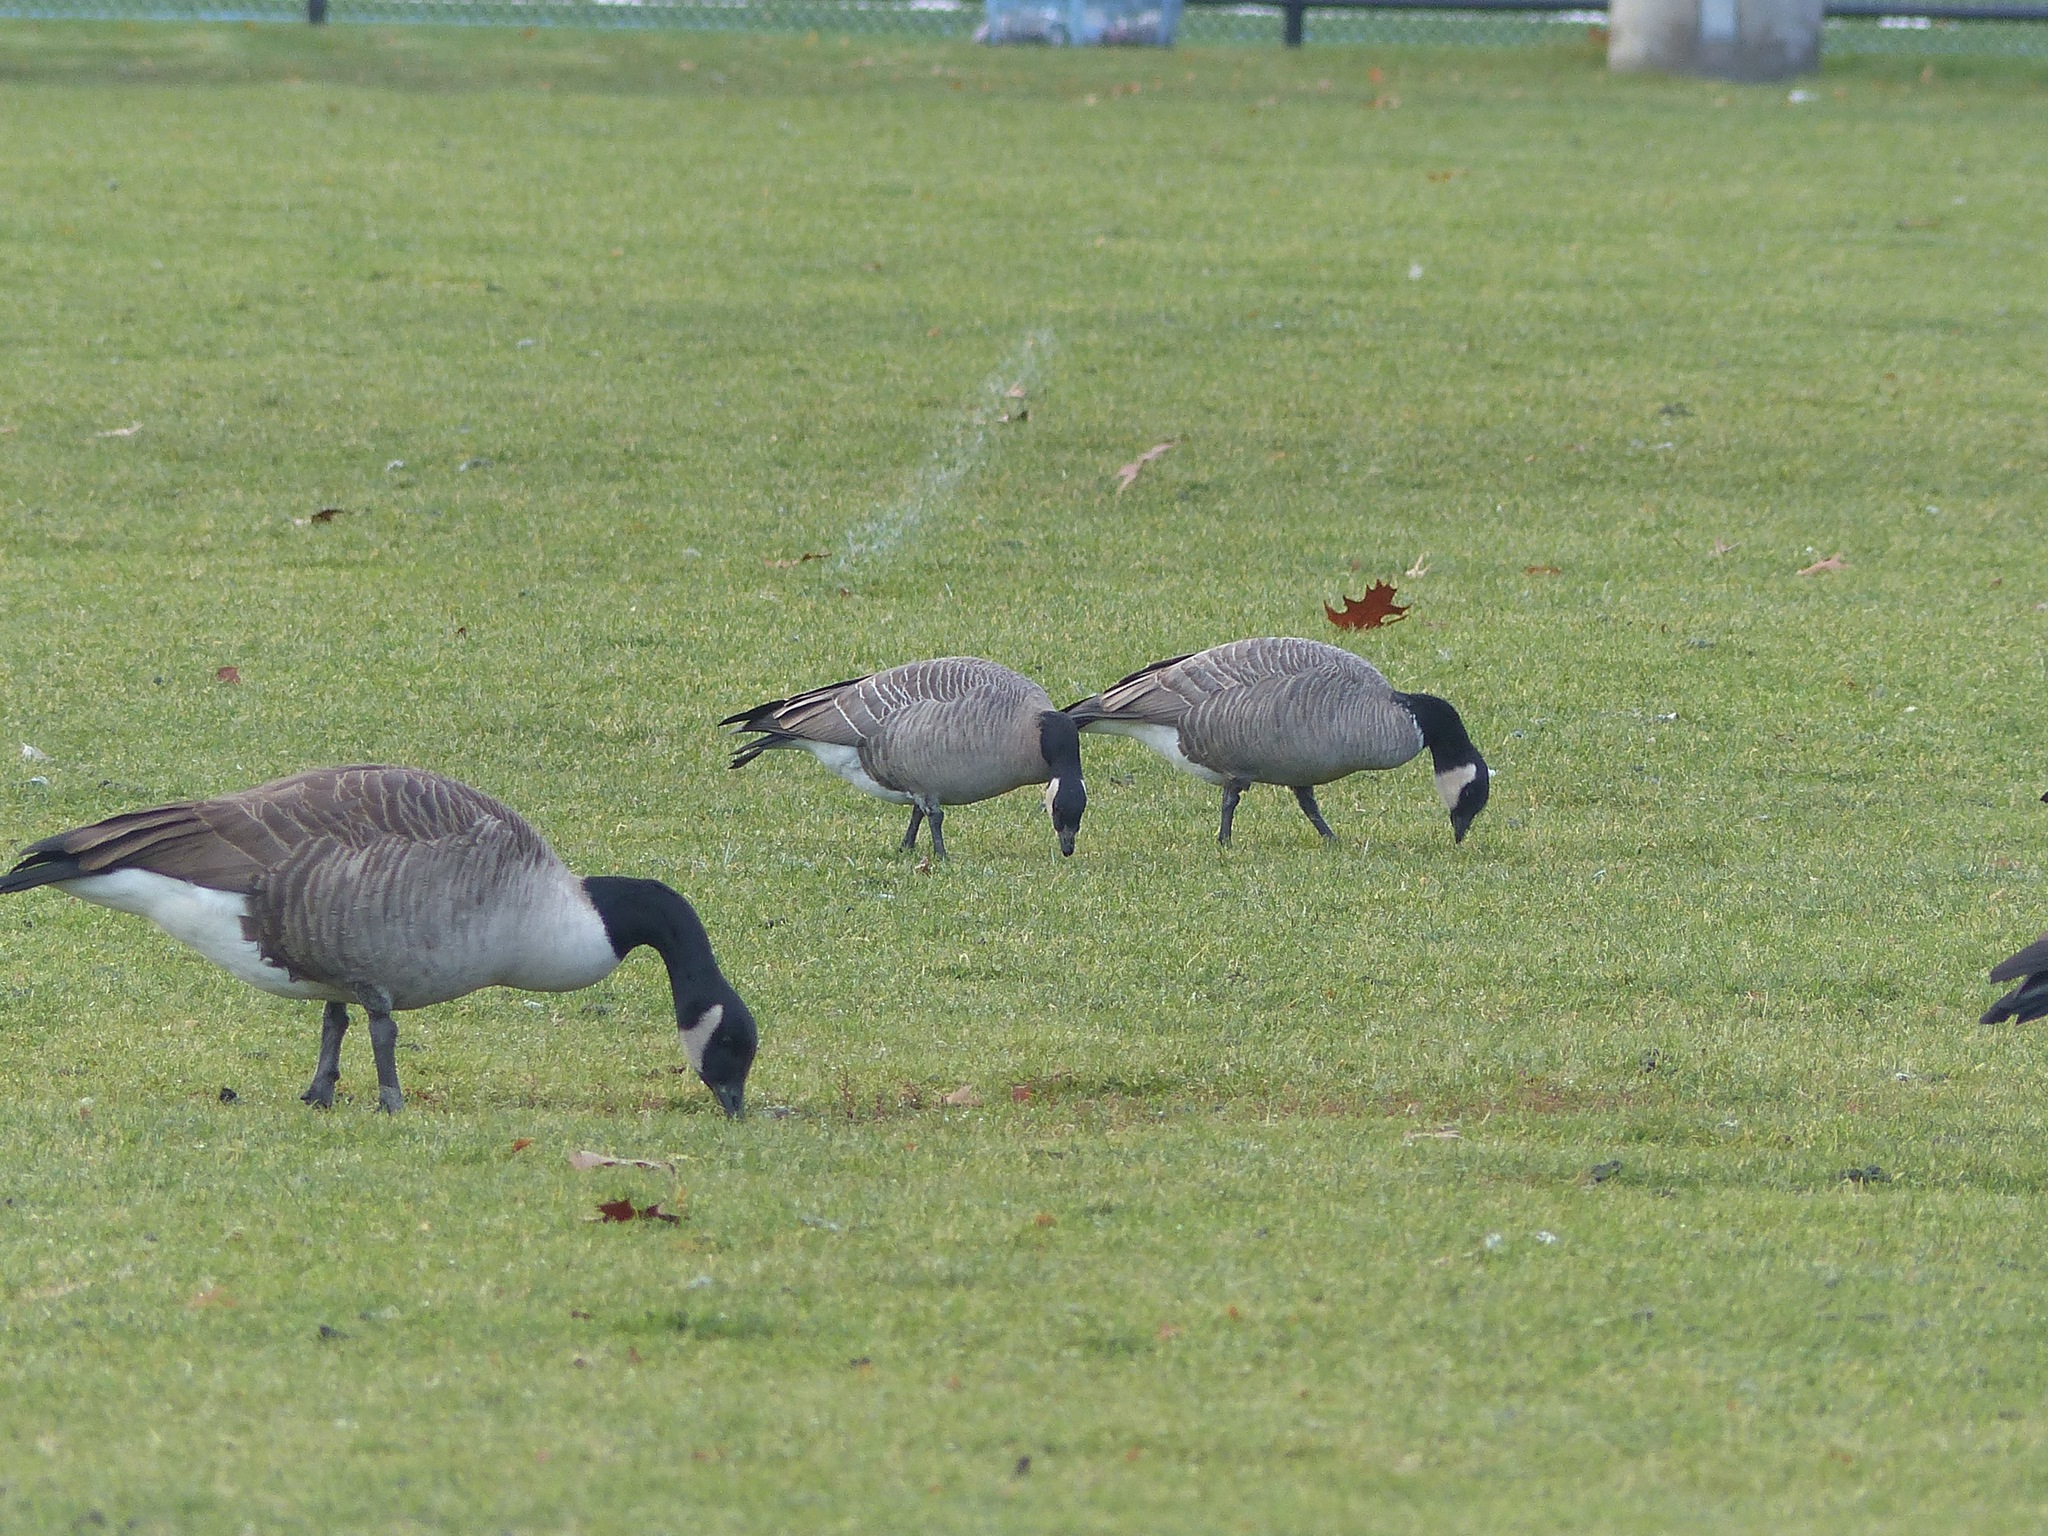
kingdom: Animalia
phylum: Chordata
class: Aves
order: Anseriformes
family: Anatidae
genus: Branta
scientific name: Branta hutchinsii
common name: Cackling goose
